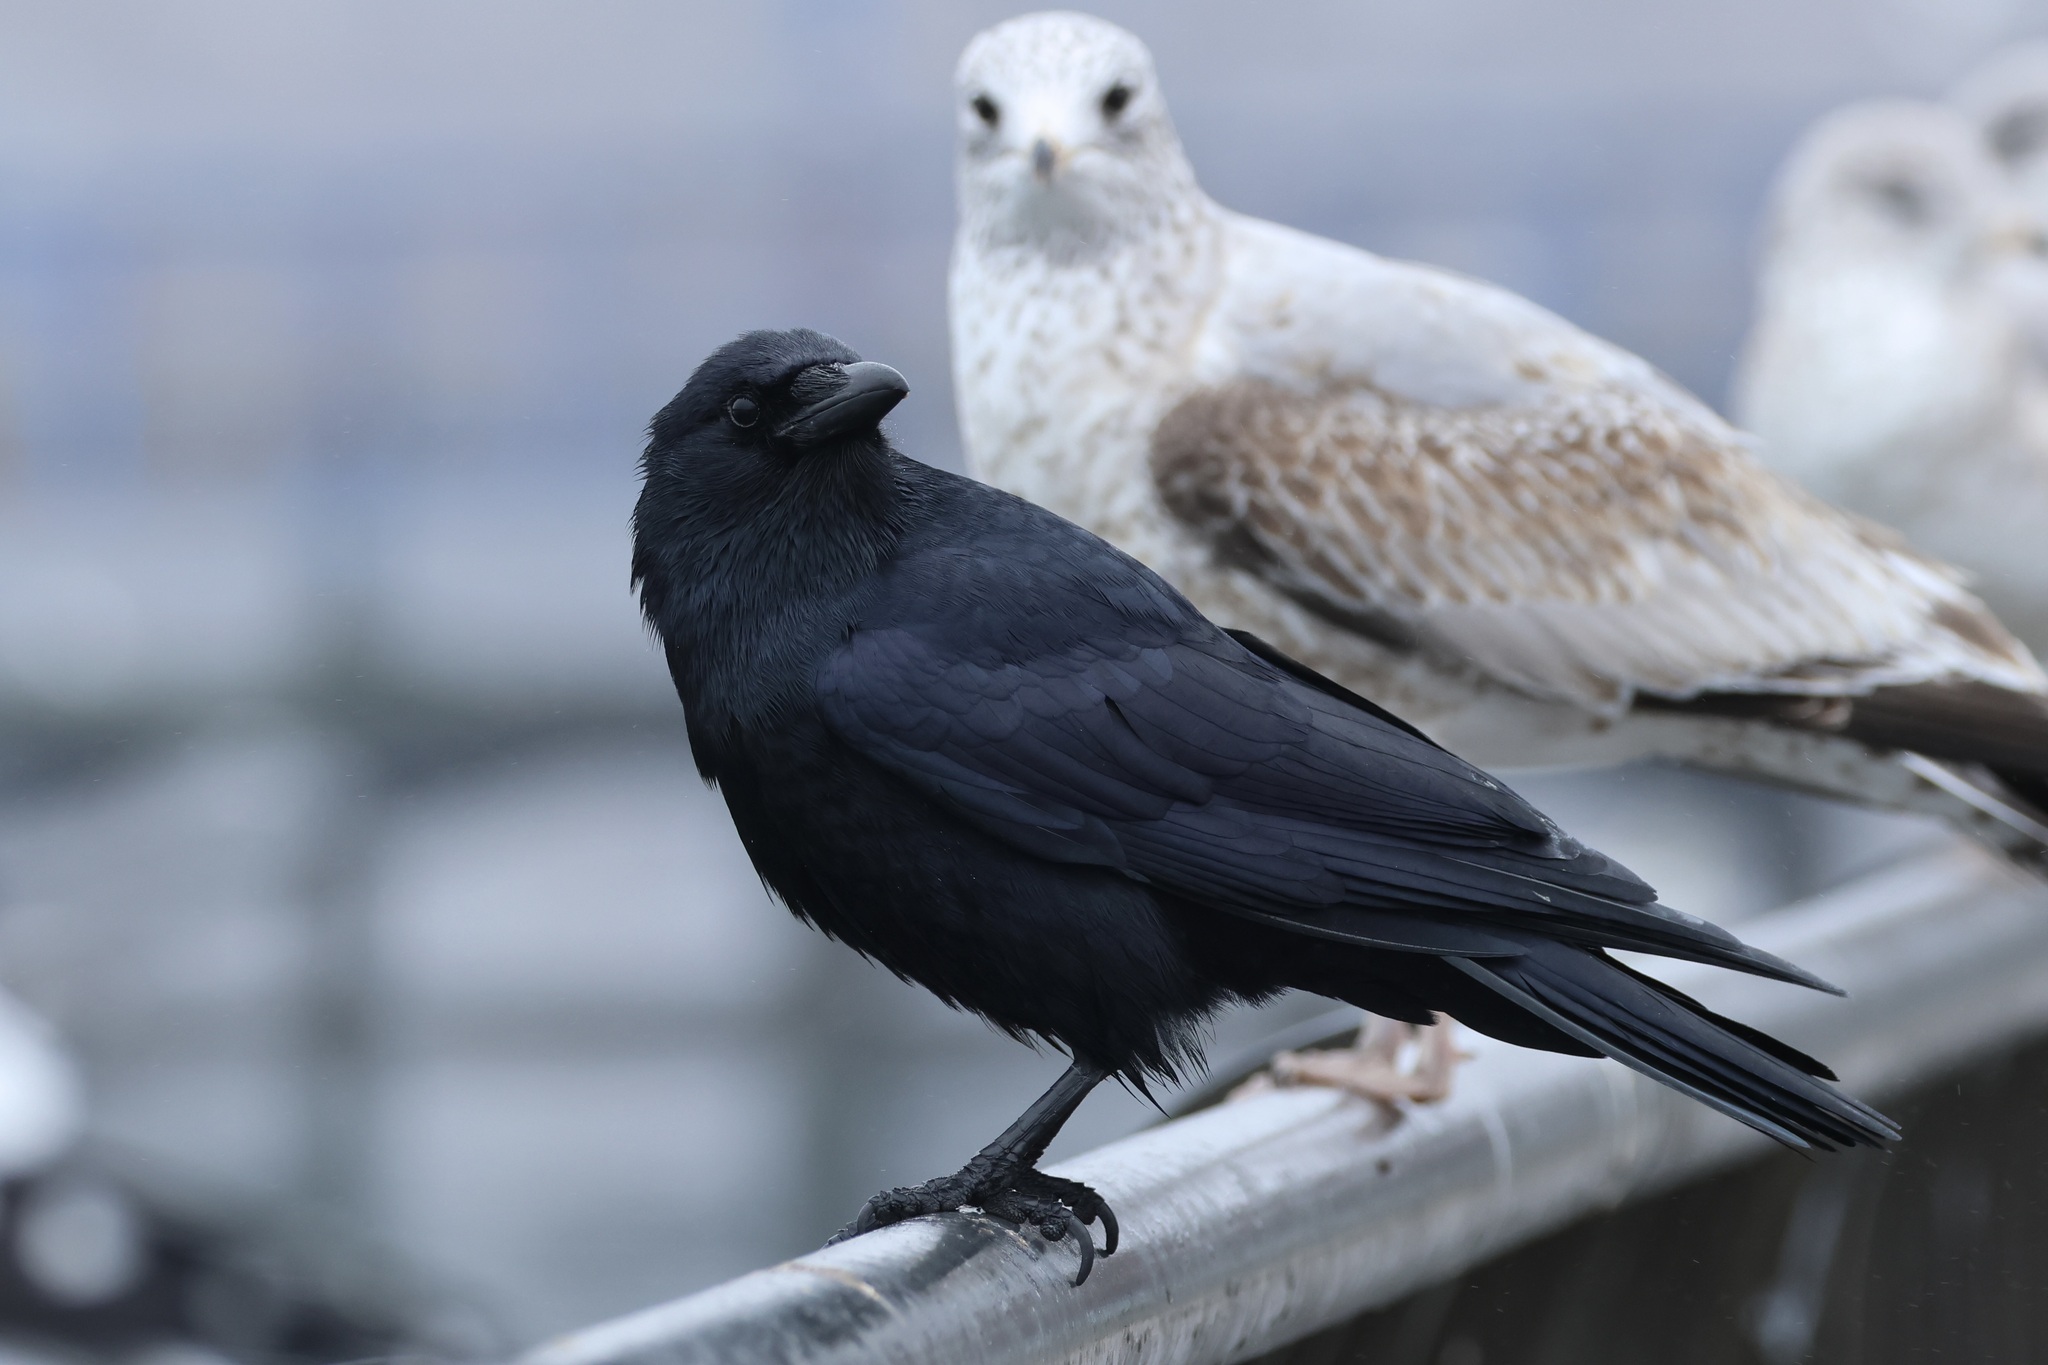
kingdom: Animalia
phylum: Chordata
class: Aves
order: Passeriformes
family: Corvidae
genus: Corvus
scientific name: Corvus ossifragus
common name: Fish crow
